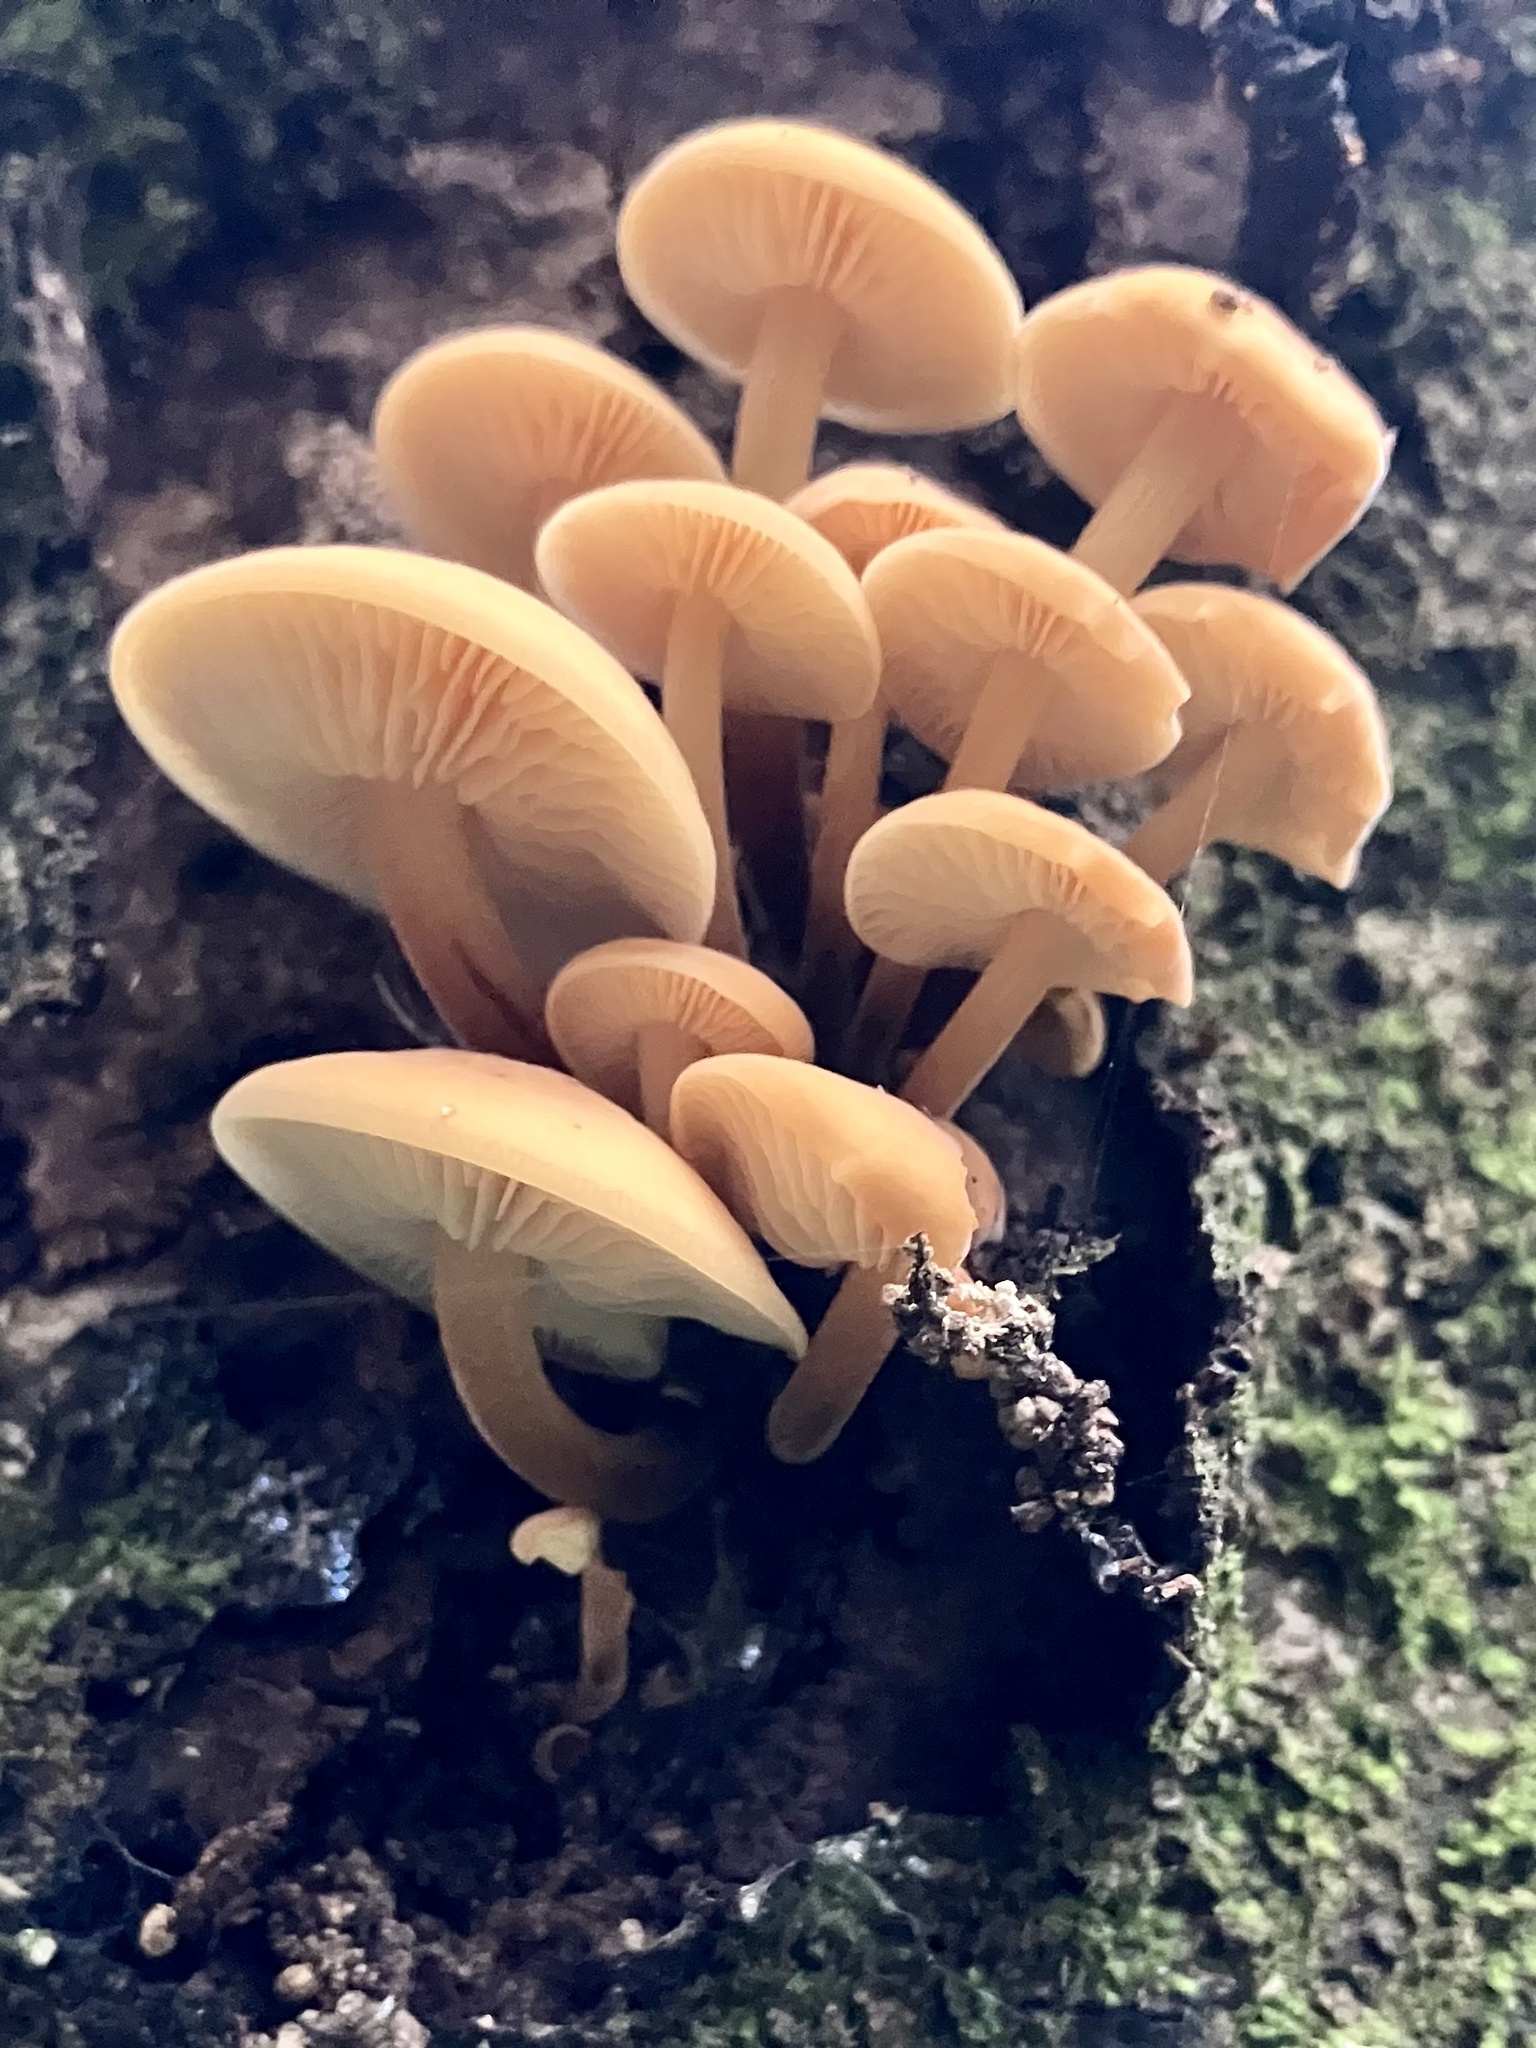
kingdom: Fungi
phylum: Basidiomycota
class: Agaricomycetes
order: Agaricales
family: Physalacriaceae
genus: Flammulina
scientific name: Flammulina velutipes
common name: Velvet shank
